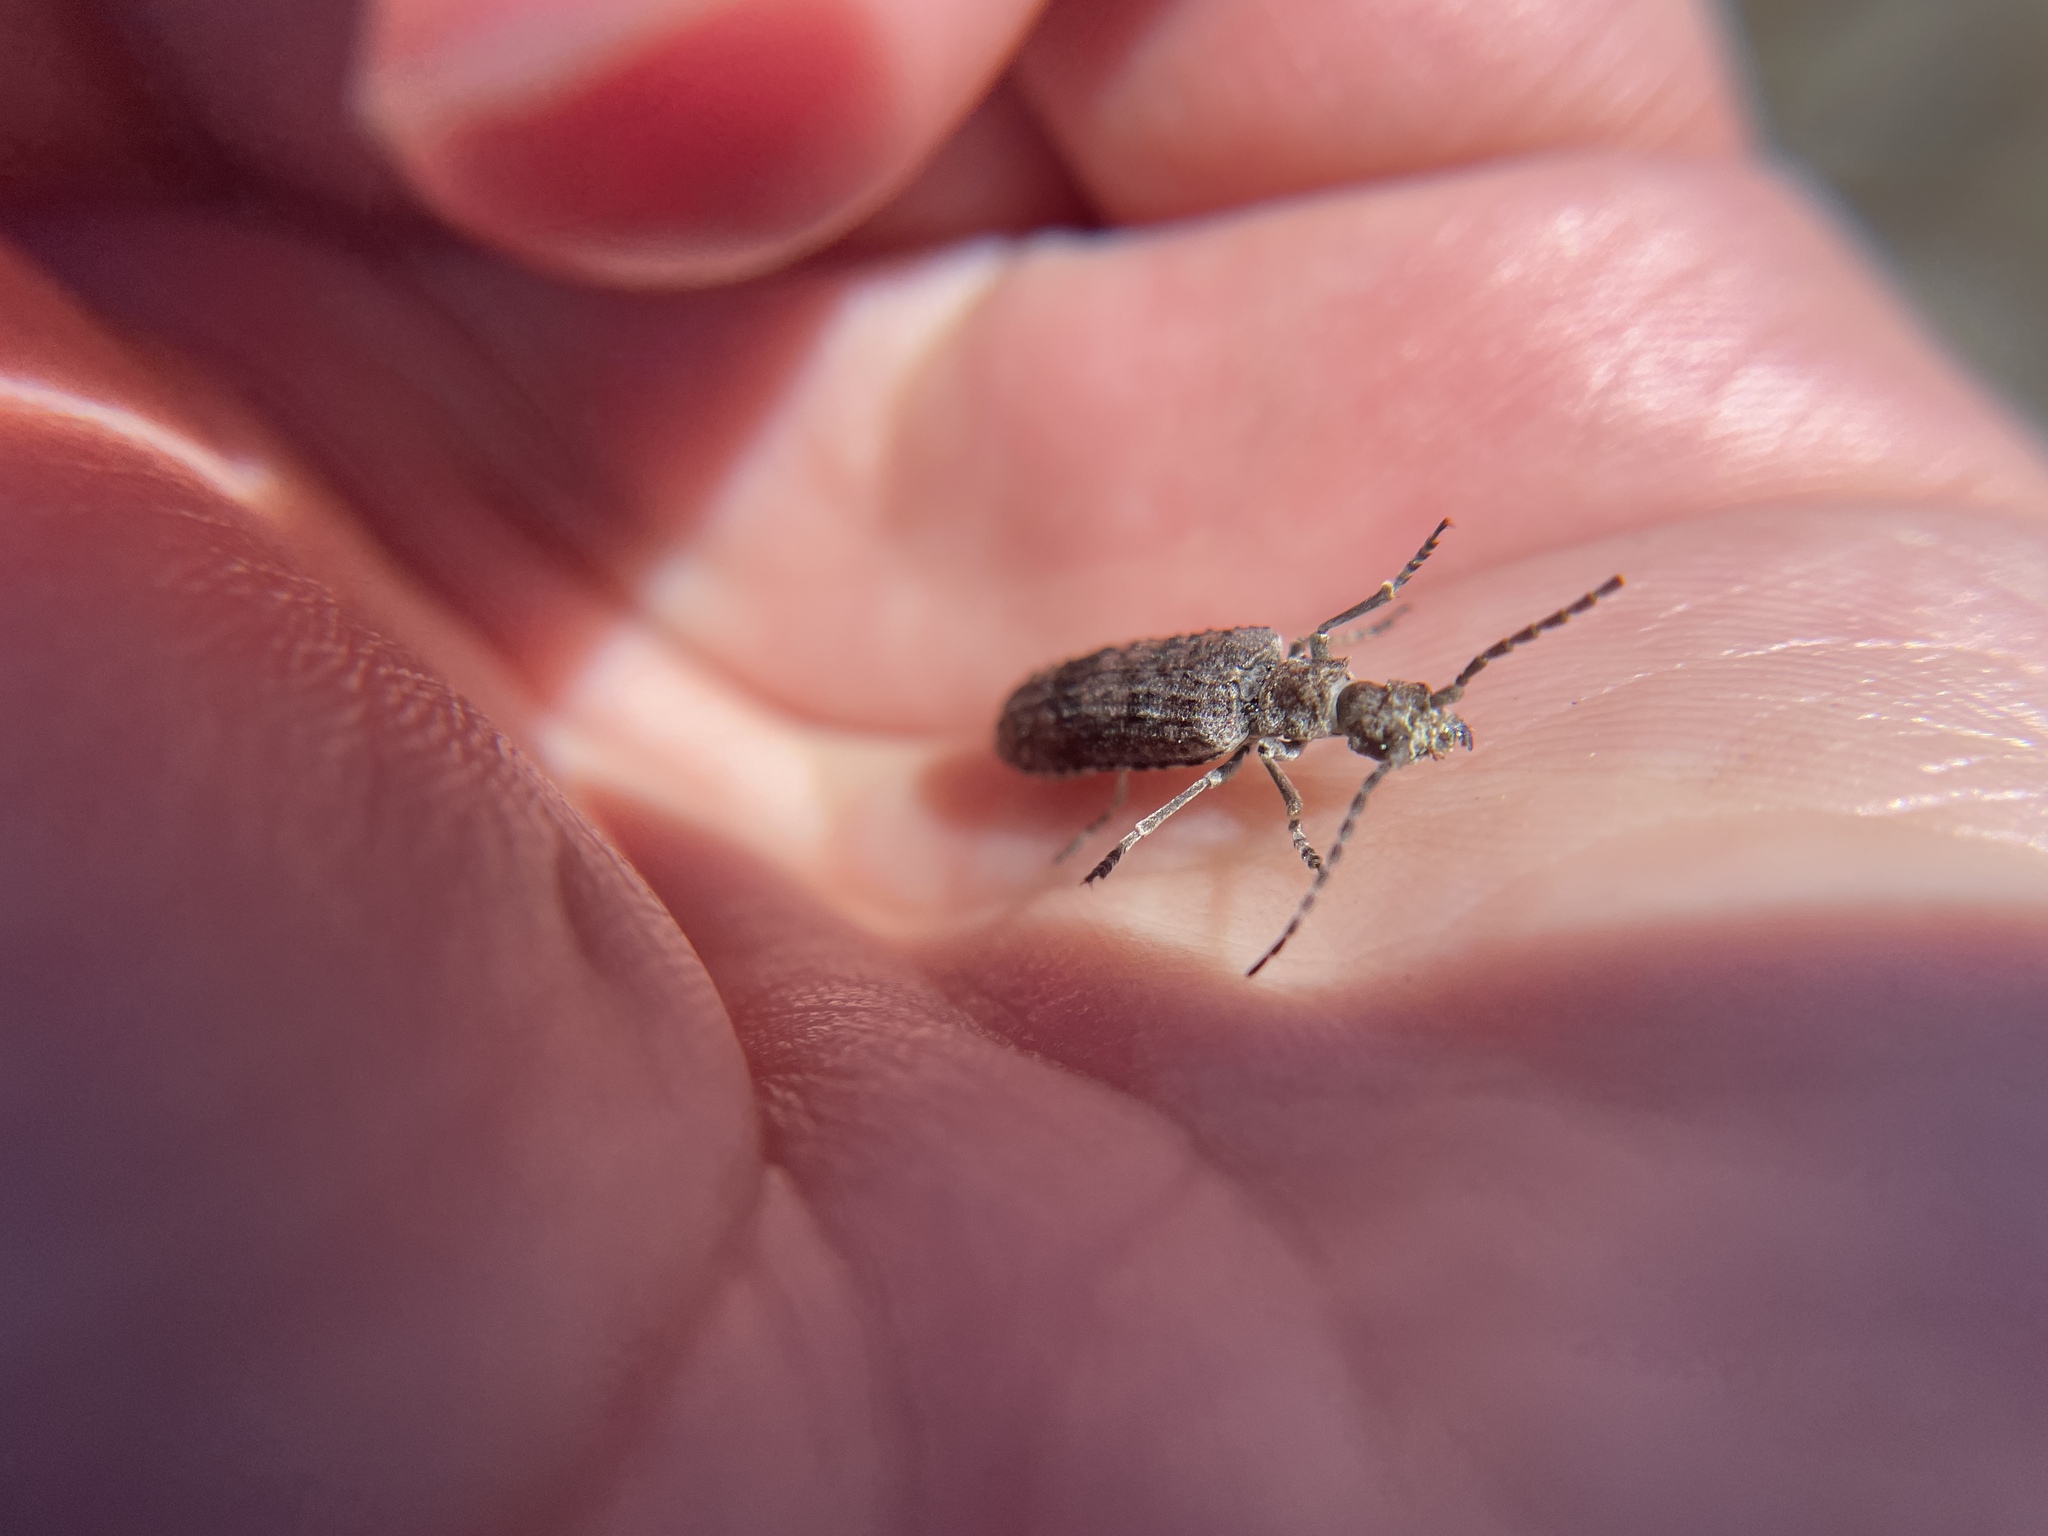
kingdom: Animalia
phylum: Arthropoda
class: Insecta
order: Coleoptera
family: Cupedidae
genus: Priacma
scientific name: Priacma serrata
